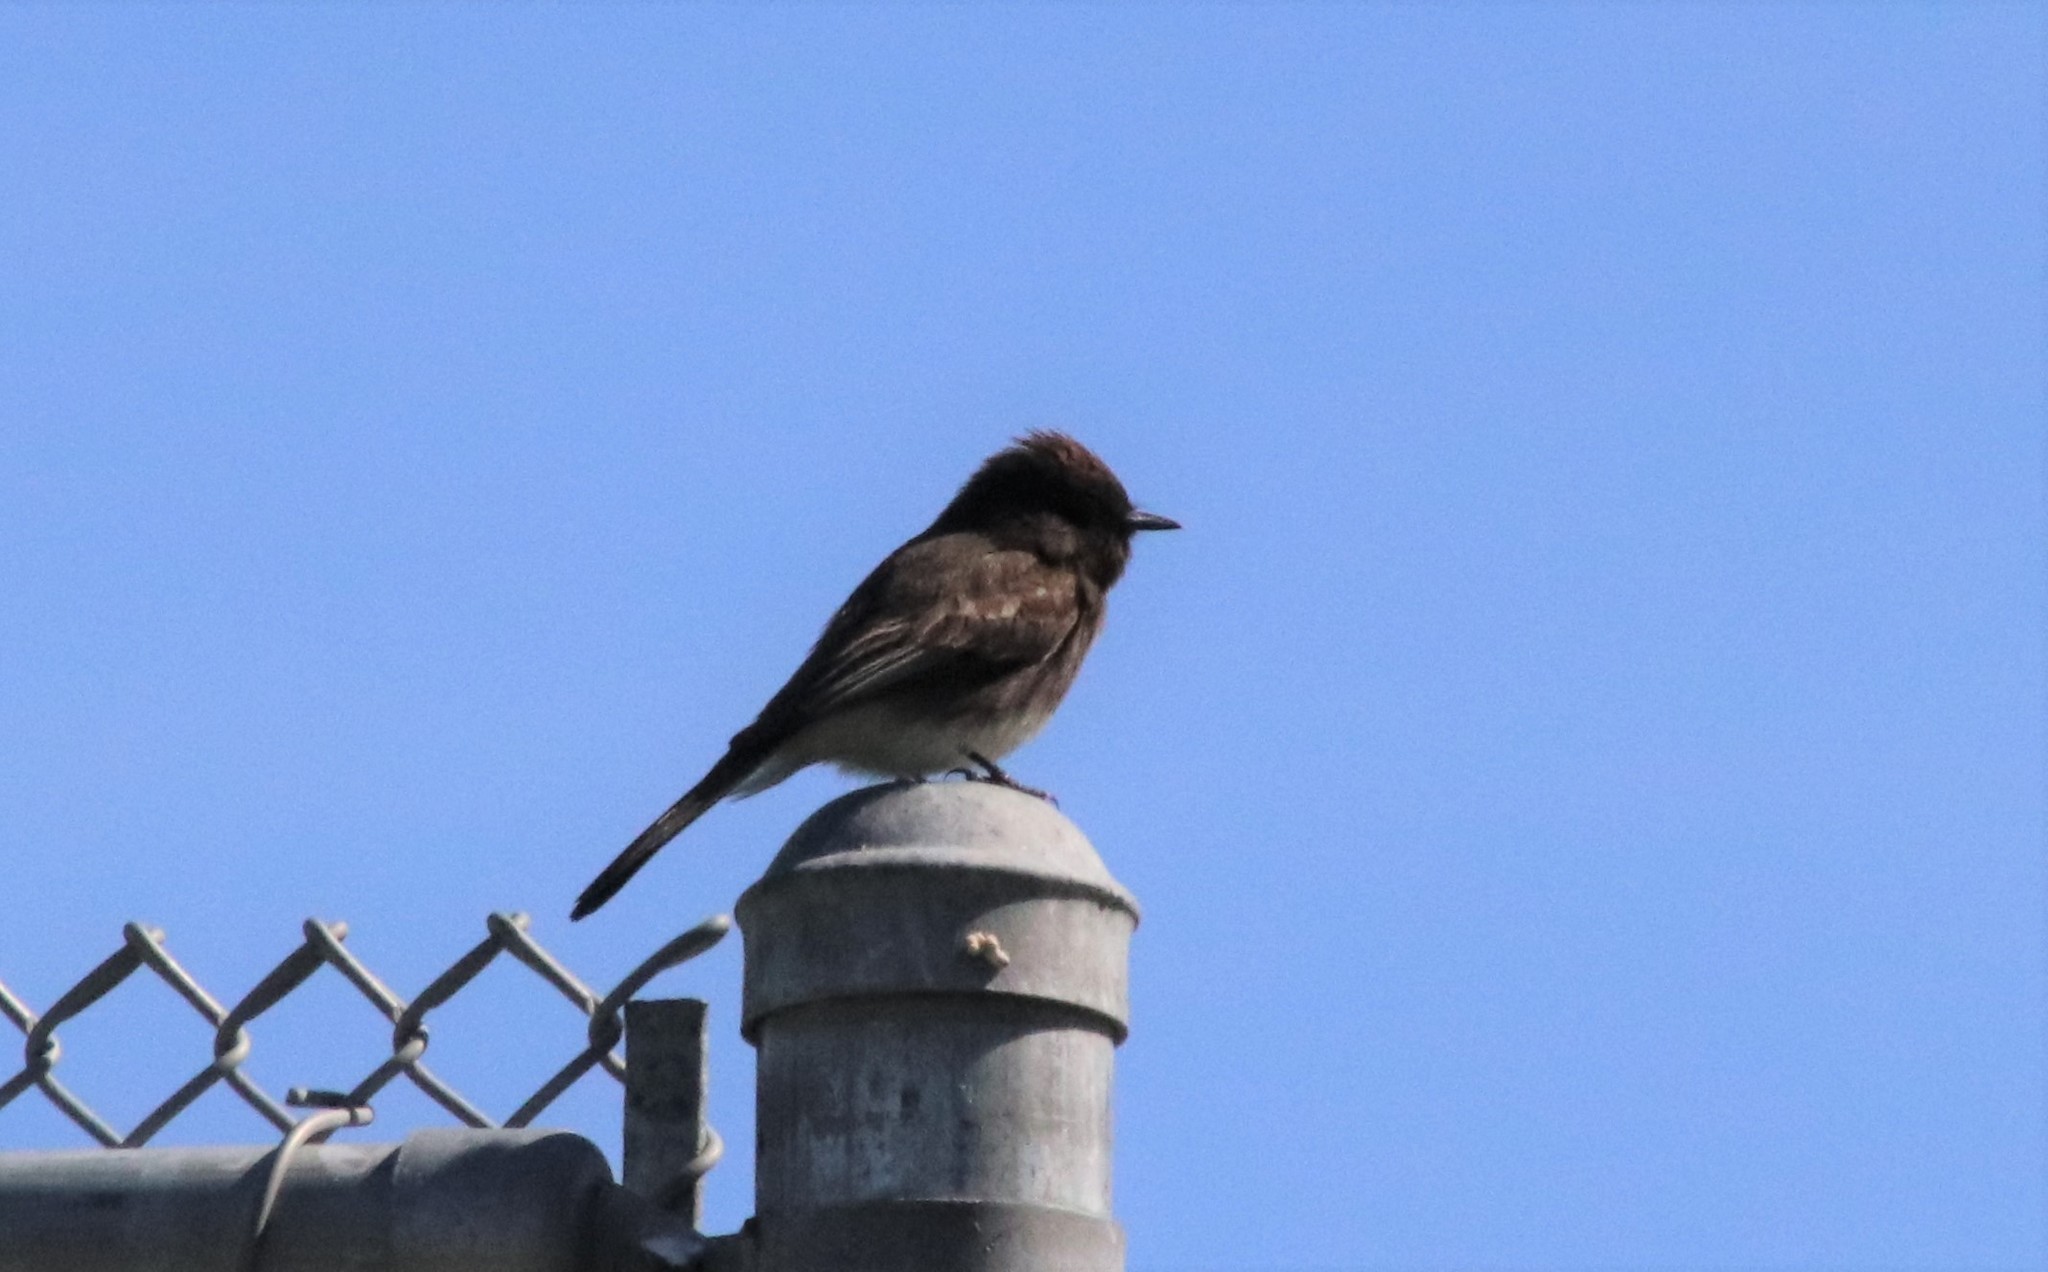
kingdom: Animalia
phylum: Chordata
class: Aves
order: Passeriformes
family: Tyrannidae
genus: Sayornis
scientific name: Sayornis nigricans
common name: Black phoebe
